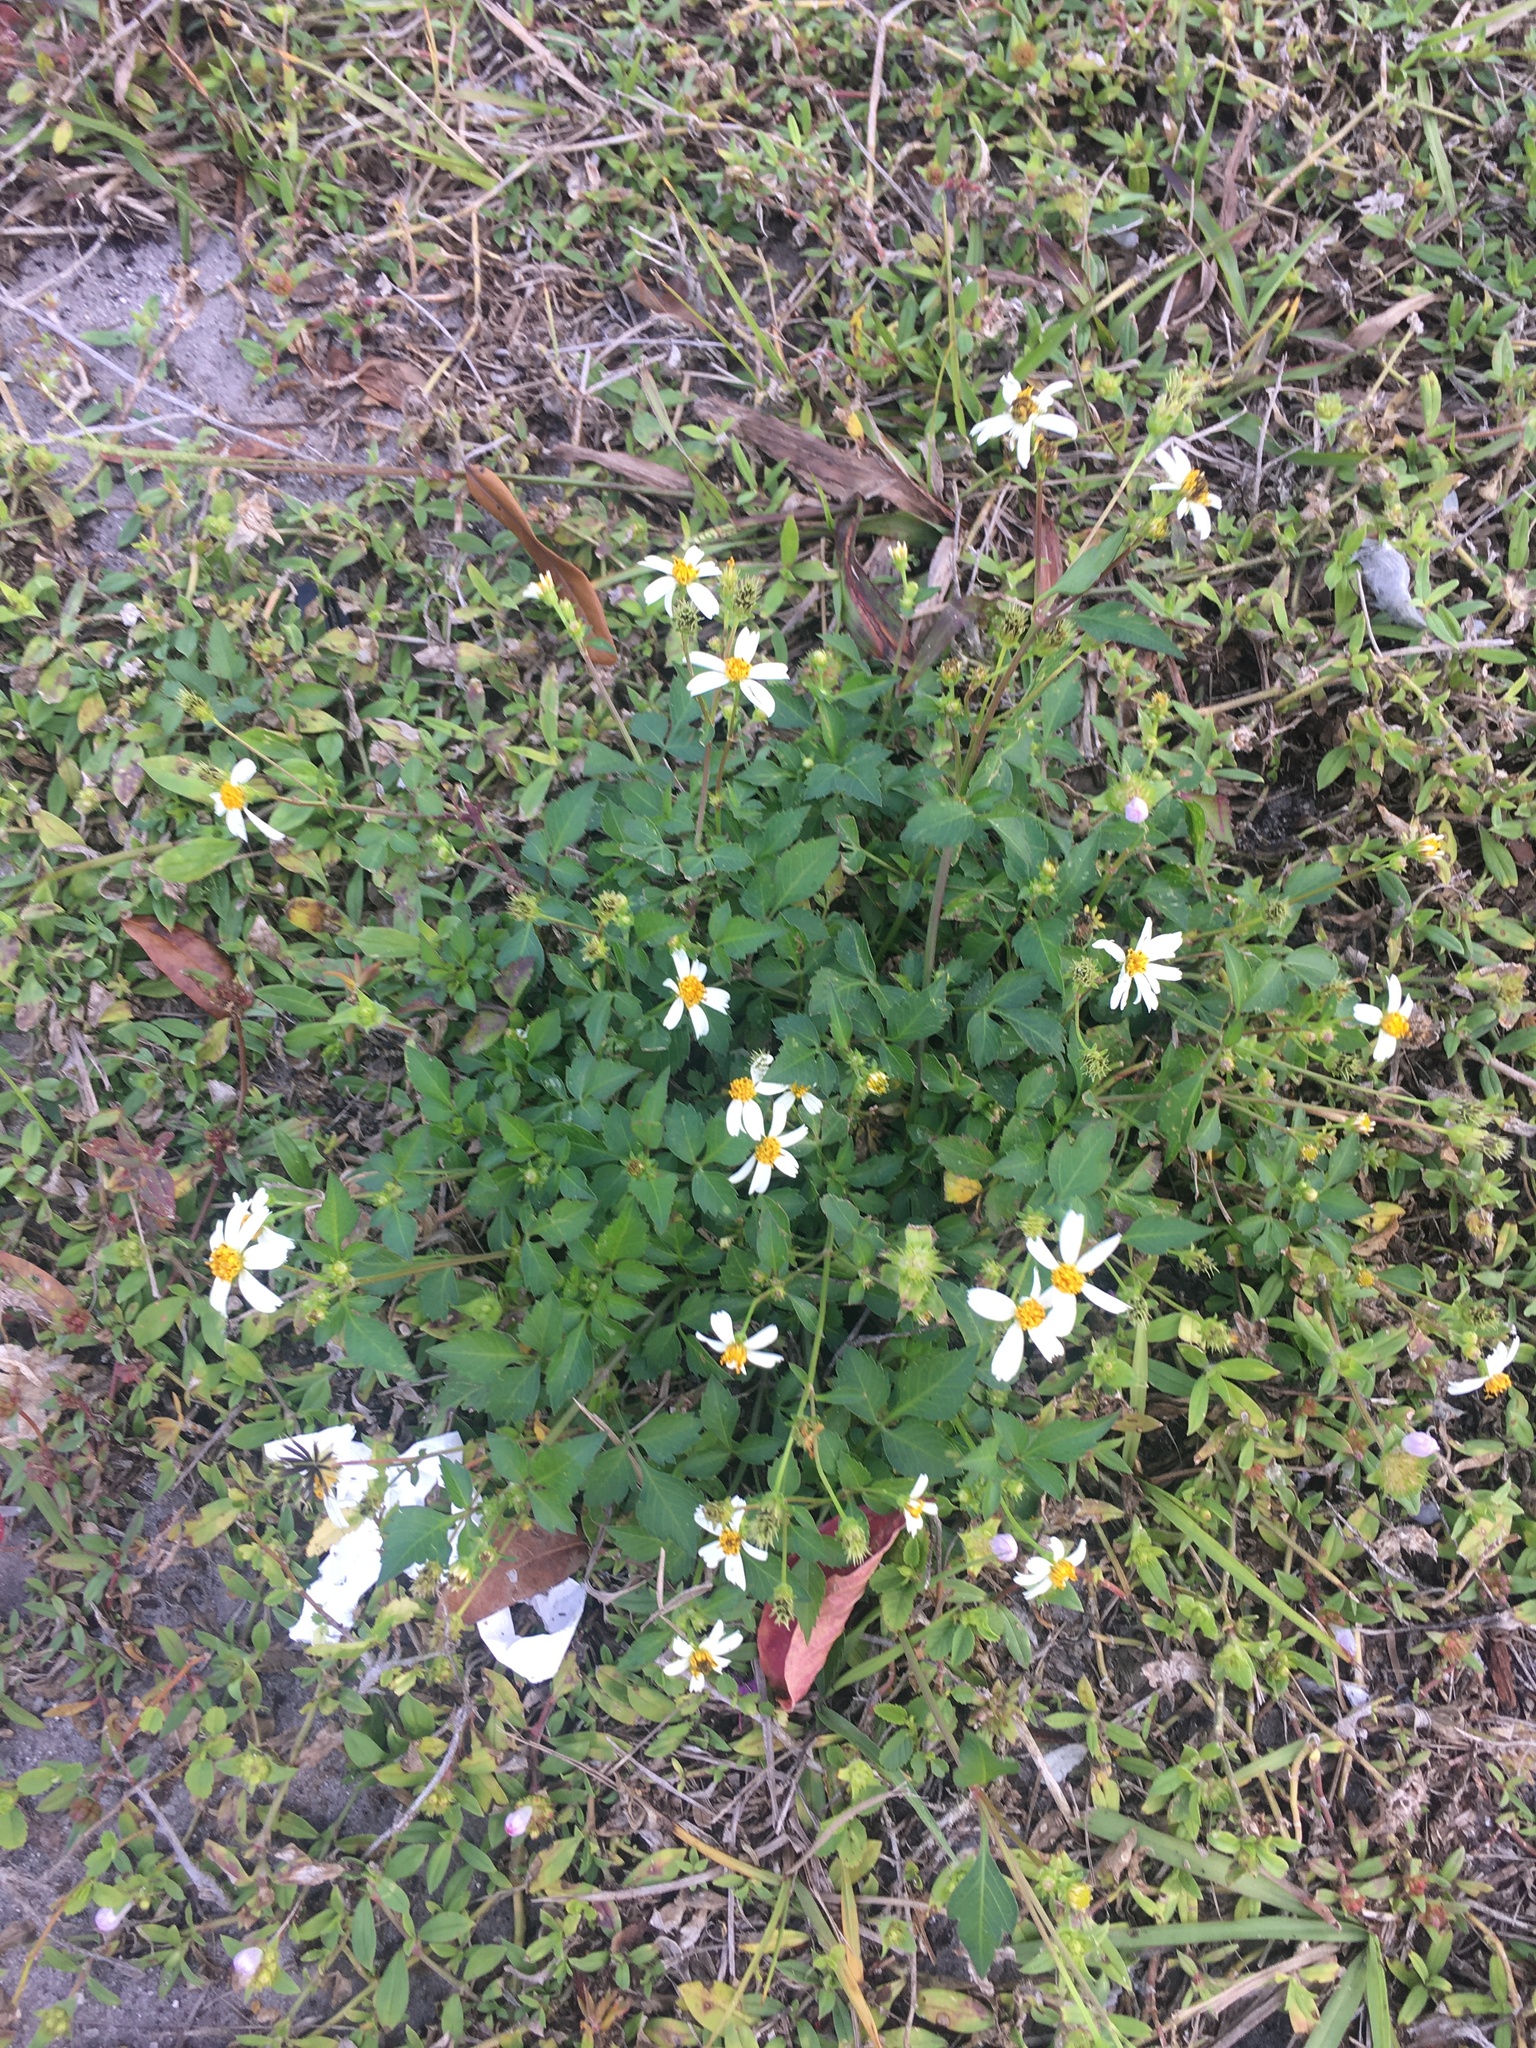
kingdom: Plantae
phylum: Tracheophyta
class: Magnoliopsida
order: Asterales
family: Asteraceae
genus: Bidens
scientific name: Bidens alba
